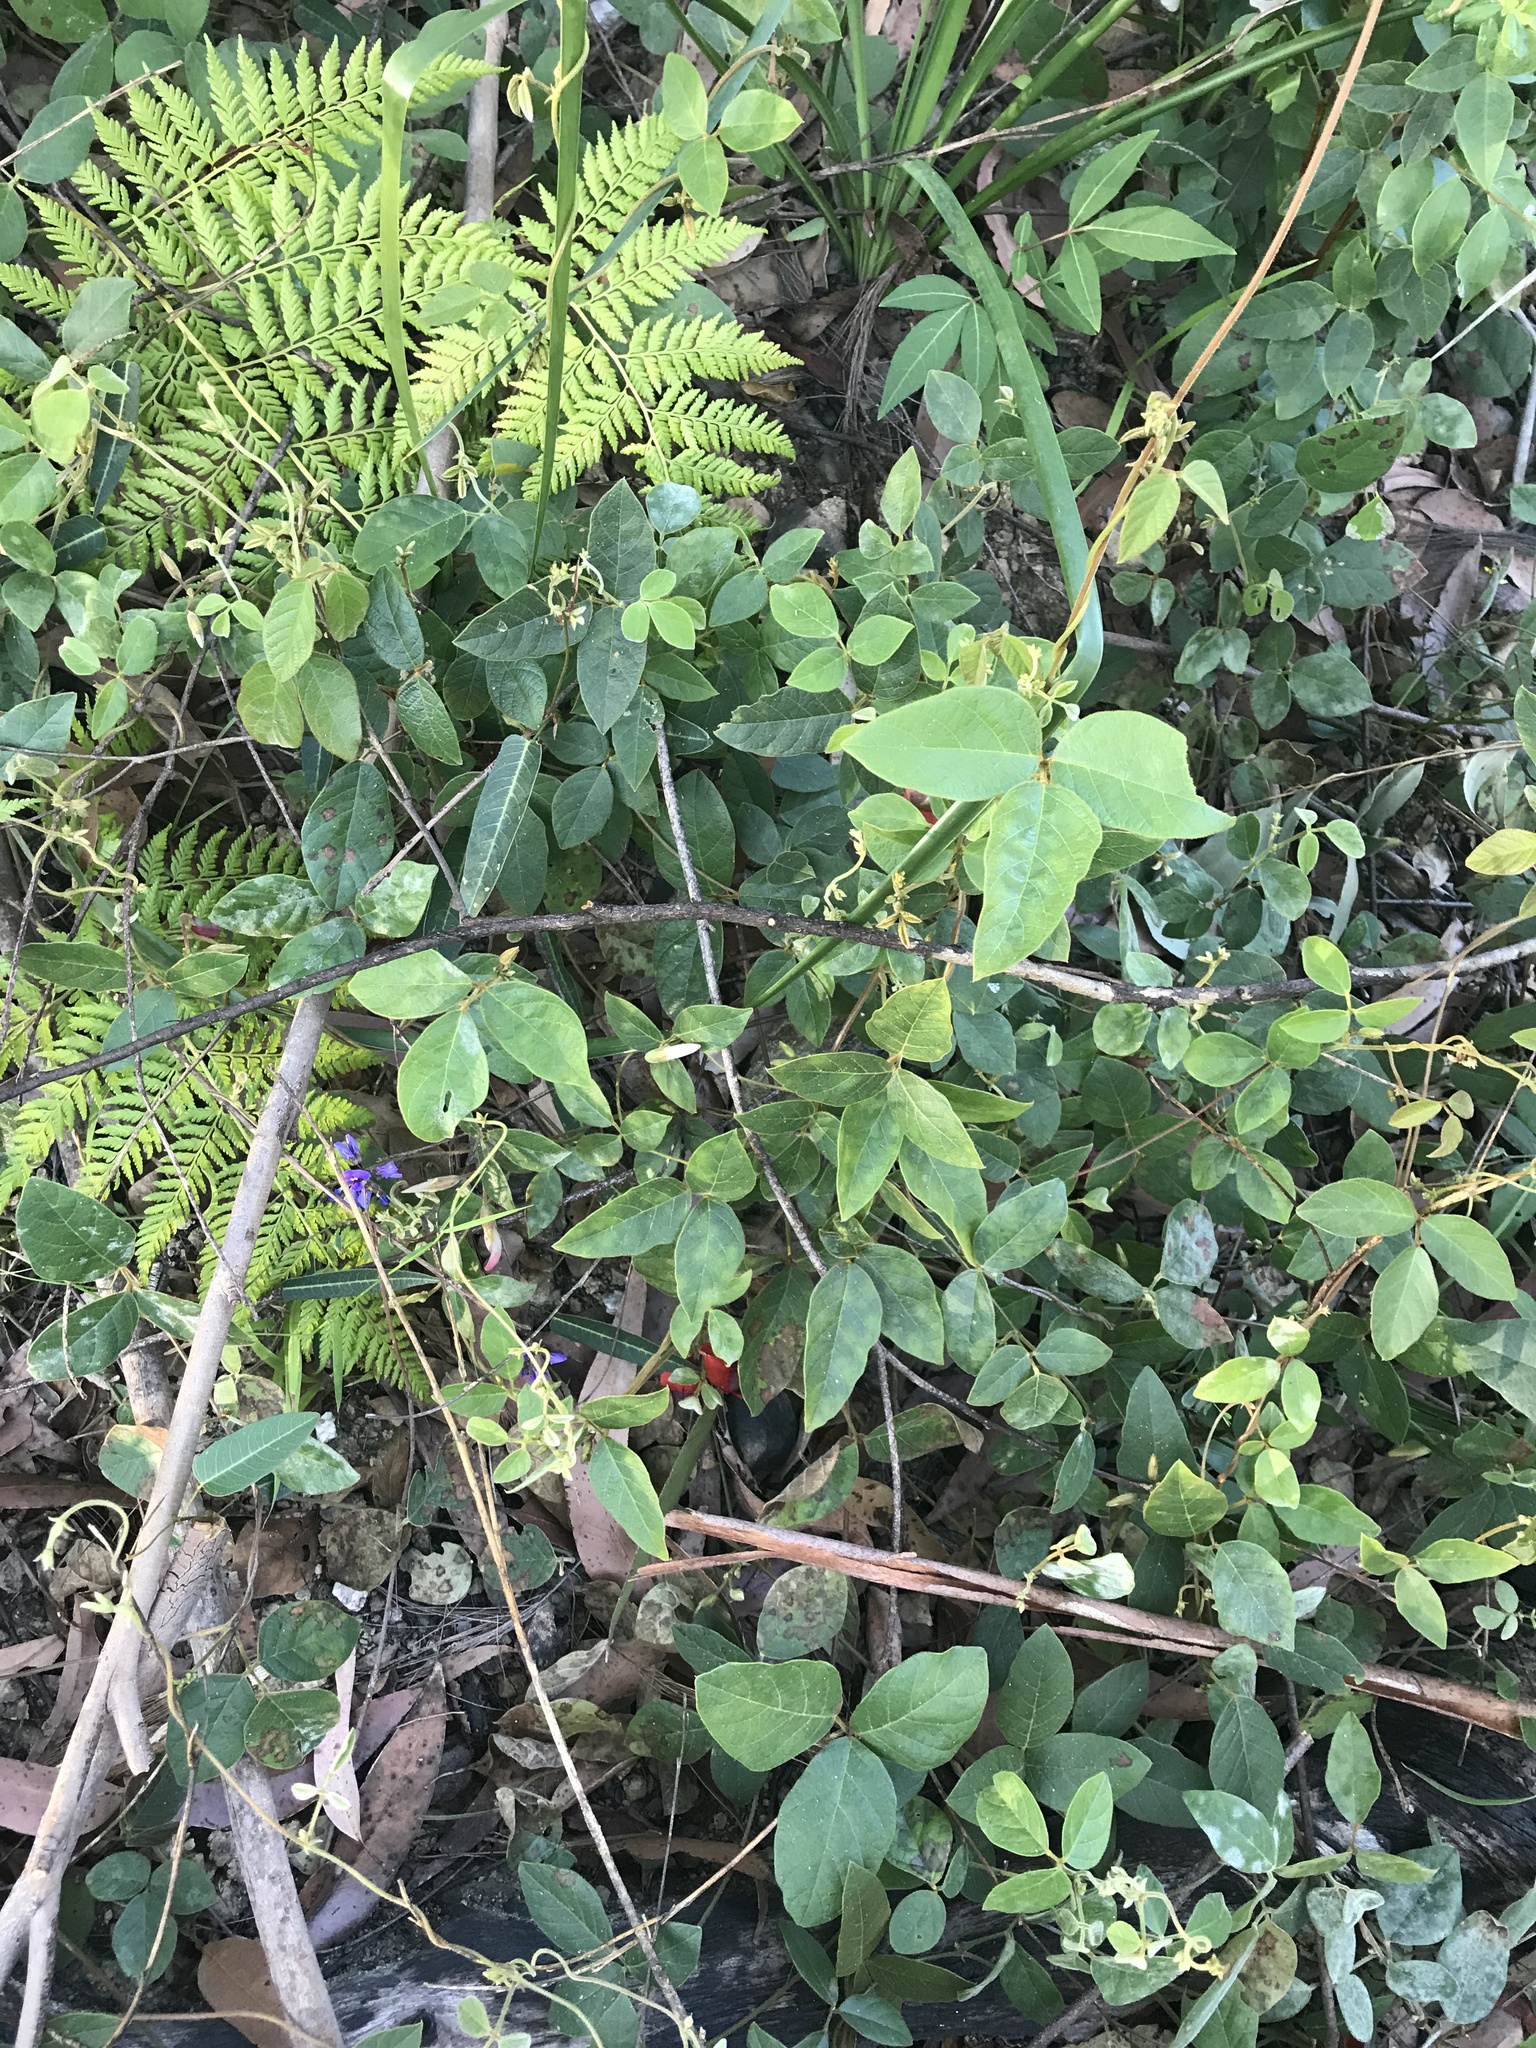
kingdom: Plantae
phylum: Tracheophyta
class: Magnoliopsida
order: Fabales
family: Fabaceae
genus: Kennedia
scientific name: Kennedia rubicunda
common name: Red kennedy-pea
